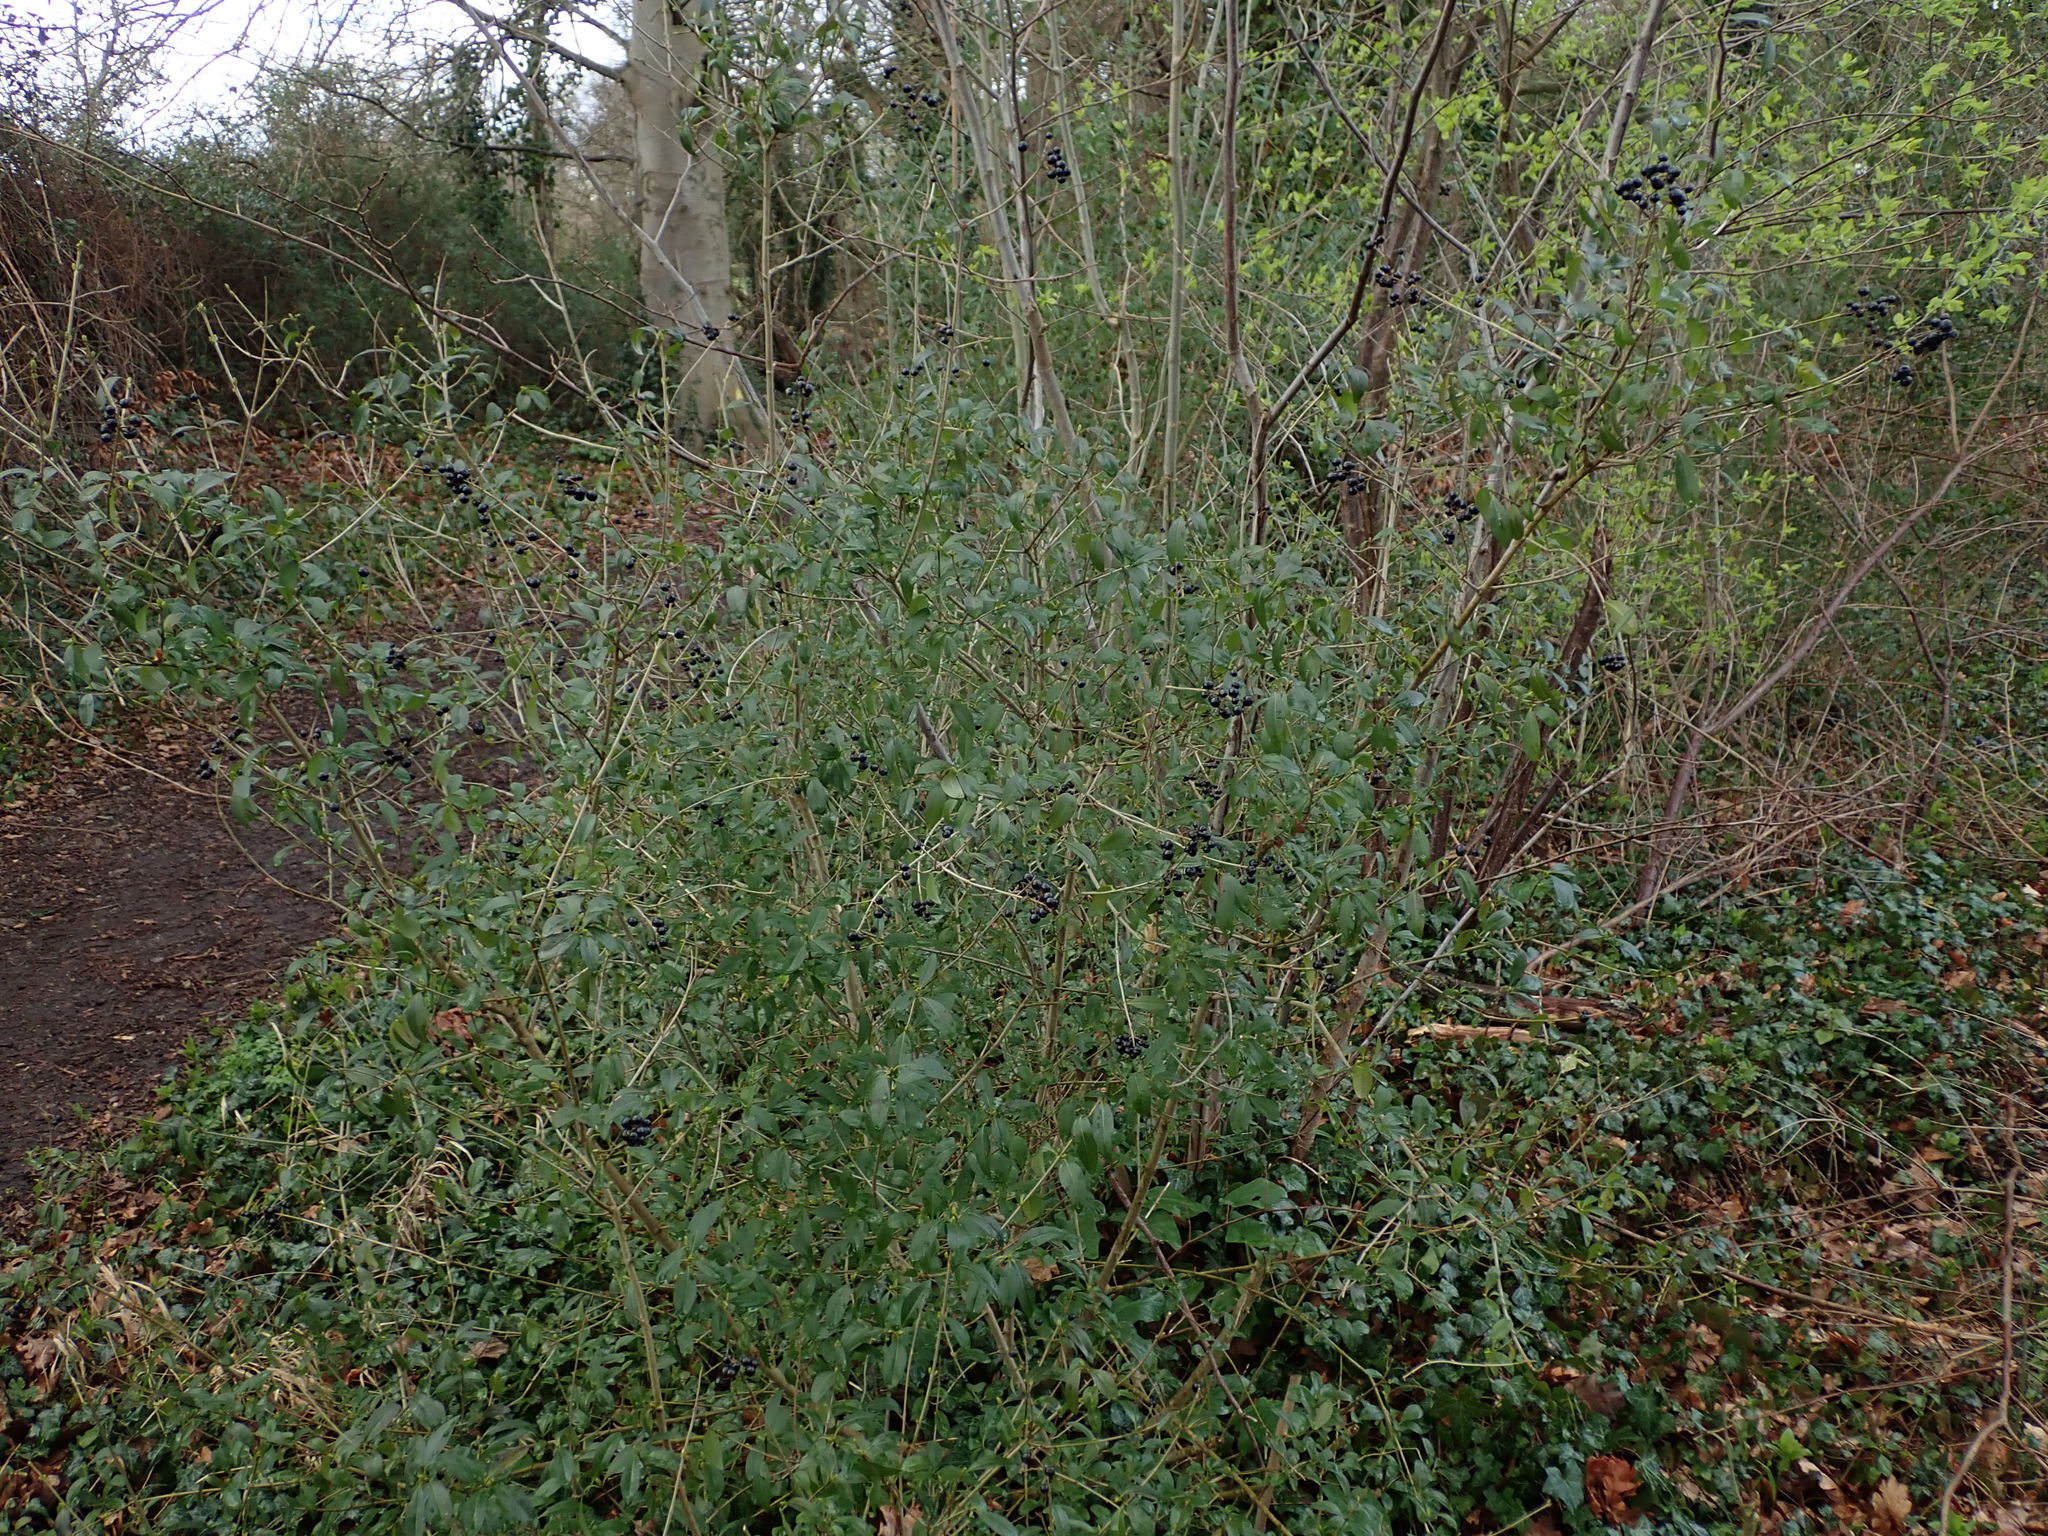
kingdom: Plantae
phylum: Tracheophyta
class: Magnoliopsida
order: Lamiales
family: Oleaceae
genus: Ligustrum
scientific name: Ligustrum vulgare
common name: Wild privet
